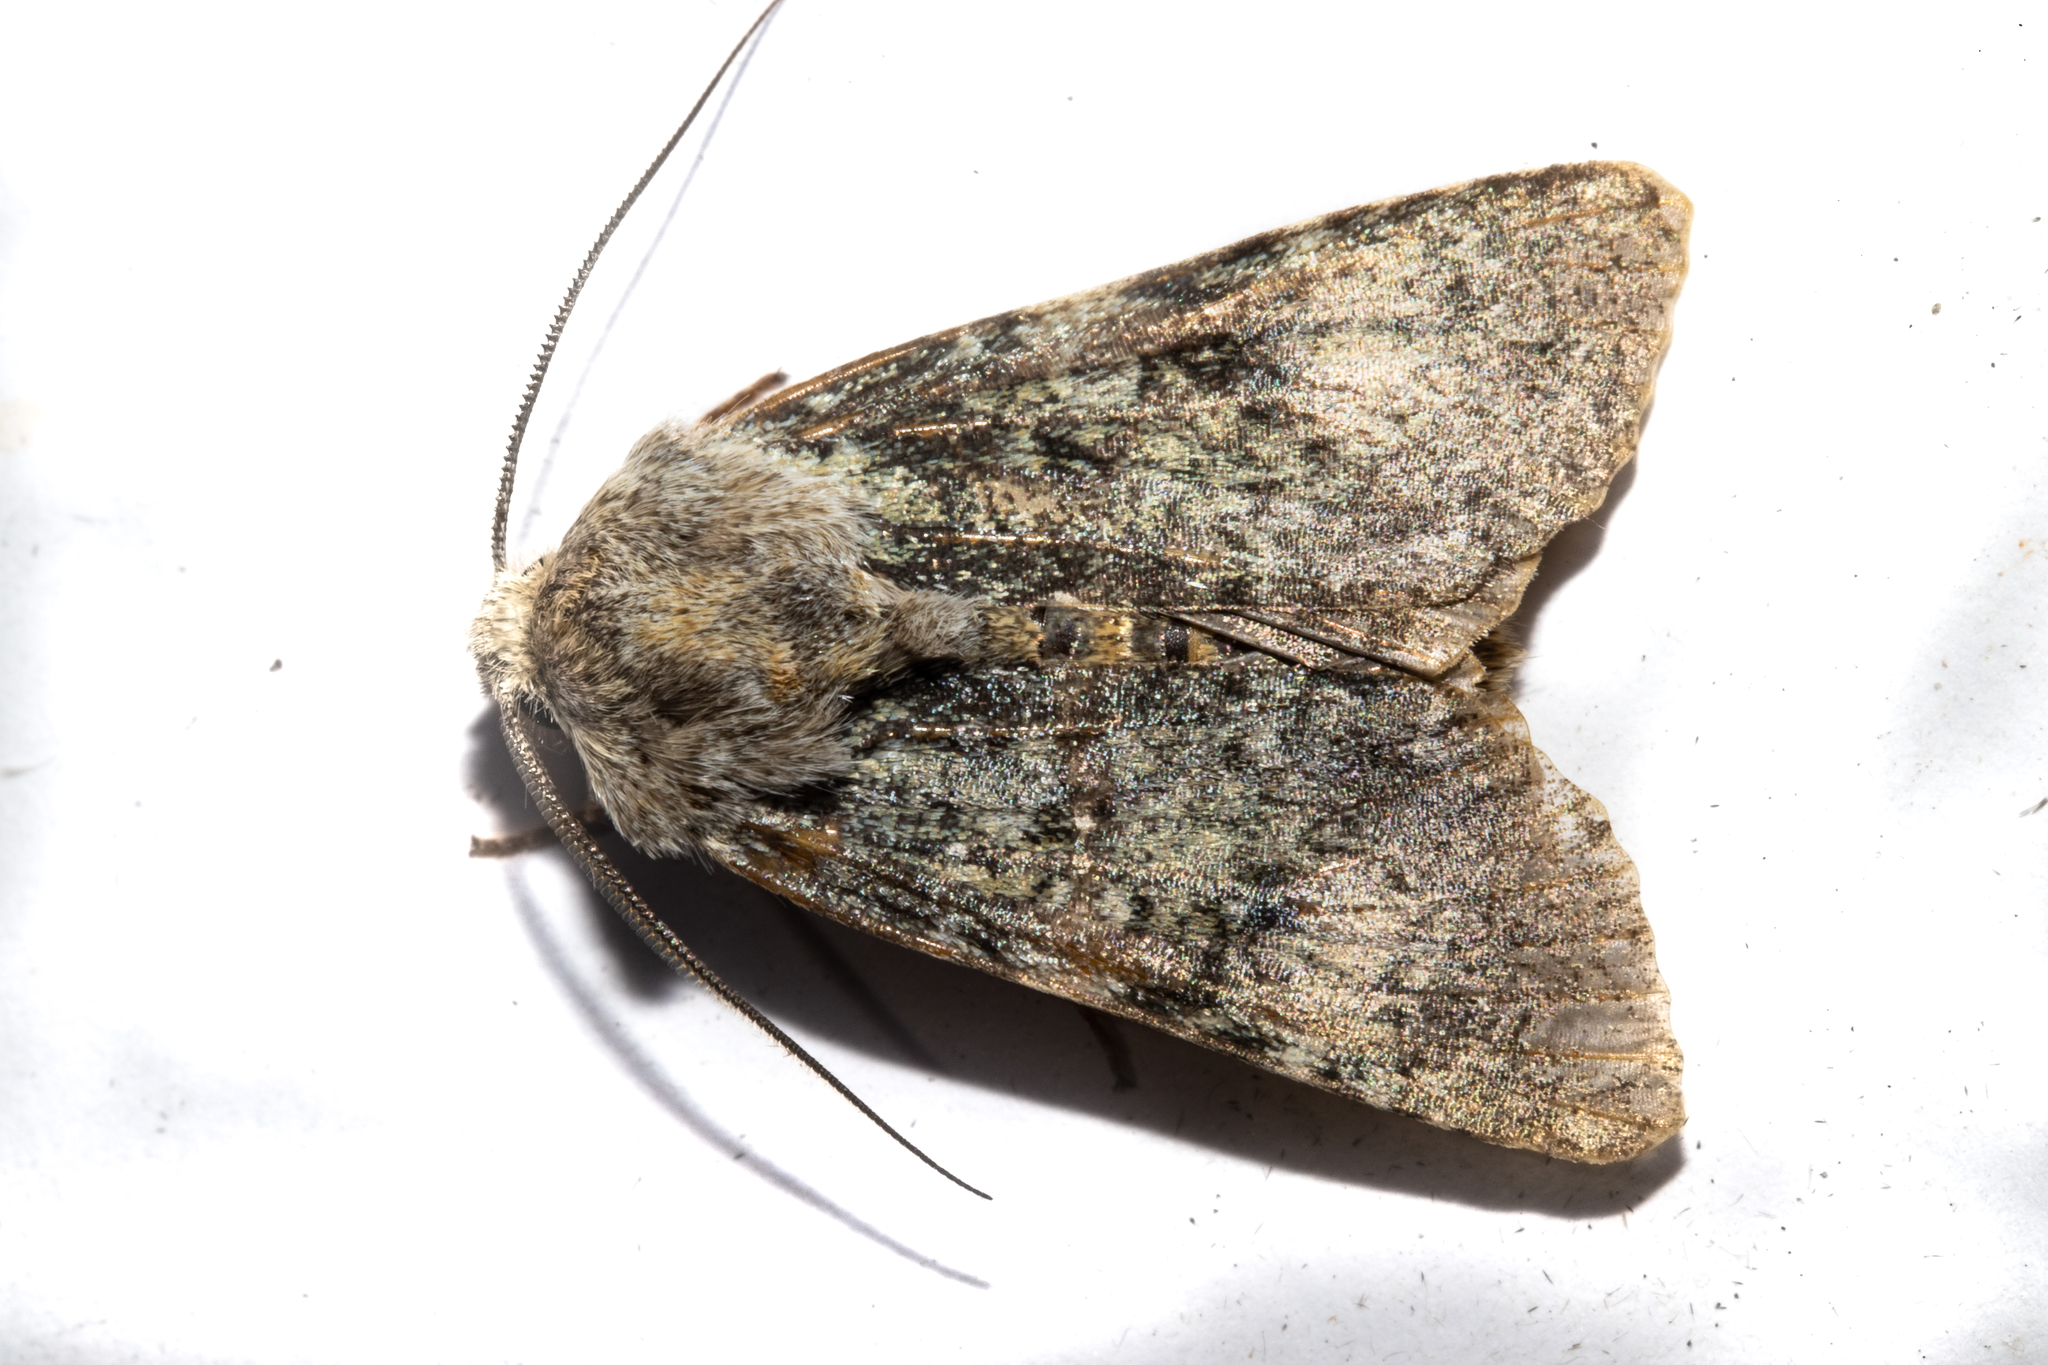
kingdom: Animalia
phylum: Arthropoda
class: Insecta
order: Lepidoptera
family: Noctuidae
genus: Ichneutica
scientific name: Ichneutica cuneata
